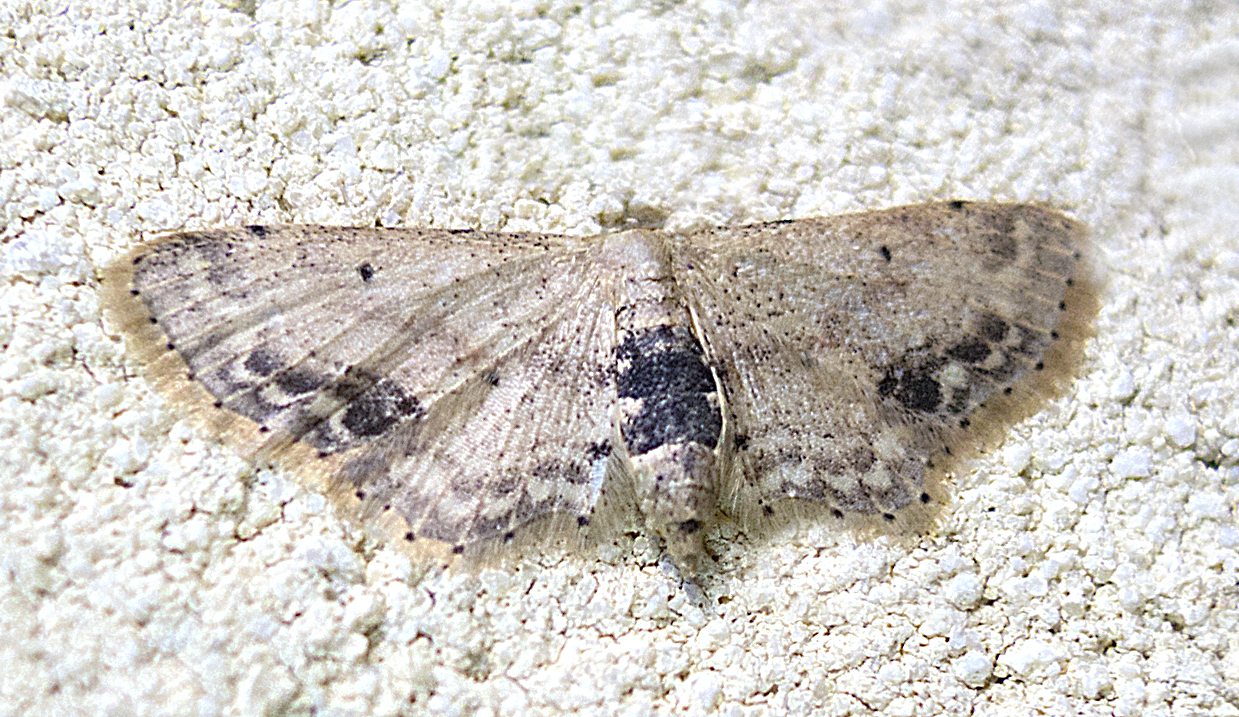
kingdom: Animalia
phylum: Arthropoda
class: Insecta
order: Lepidoptera
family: Geometridae
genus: Idaea
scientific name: Idaea dimidiata
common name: Single-dotted wave
